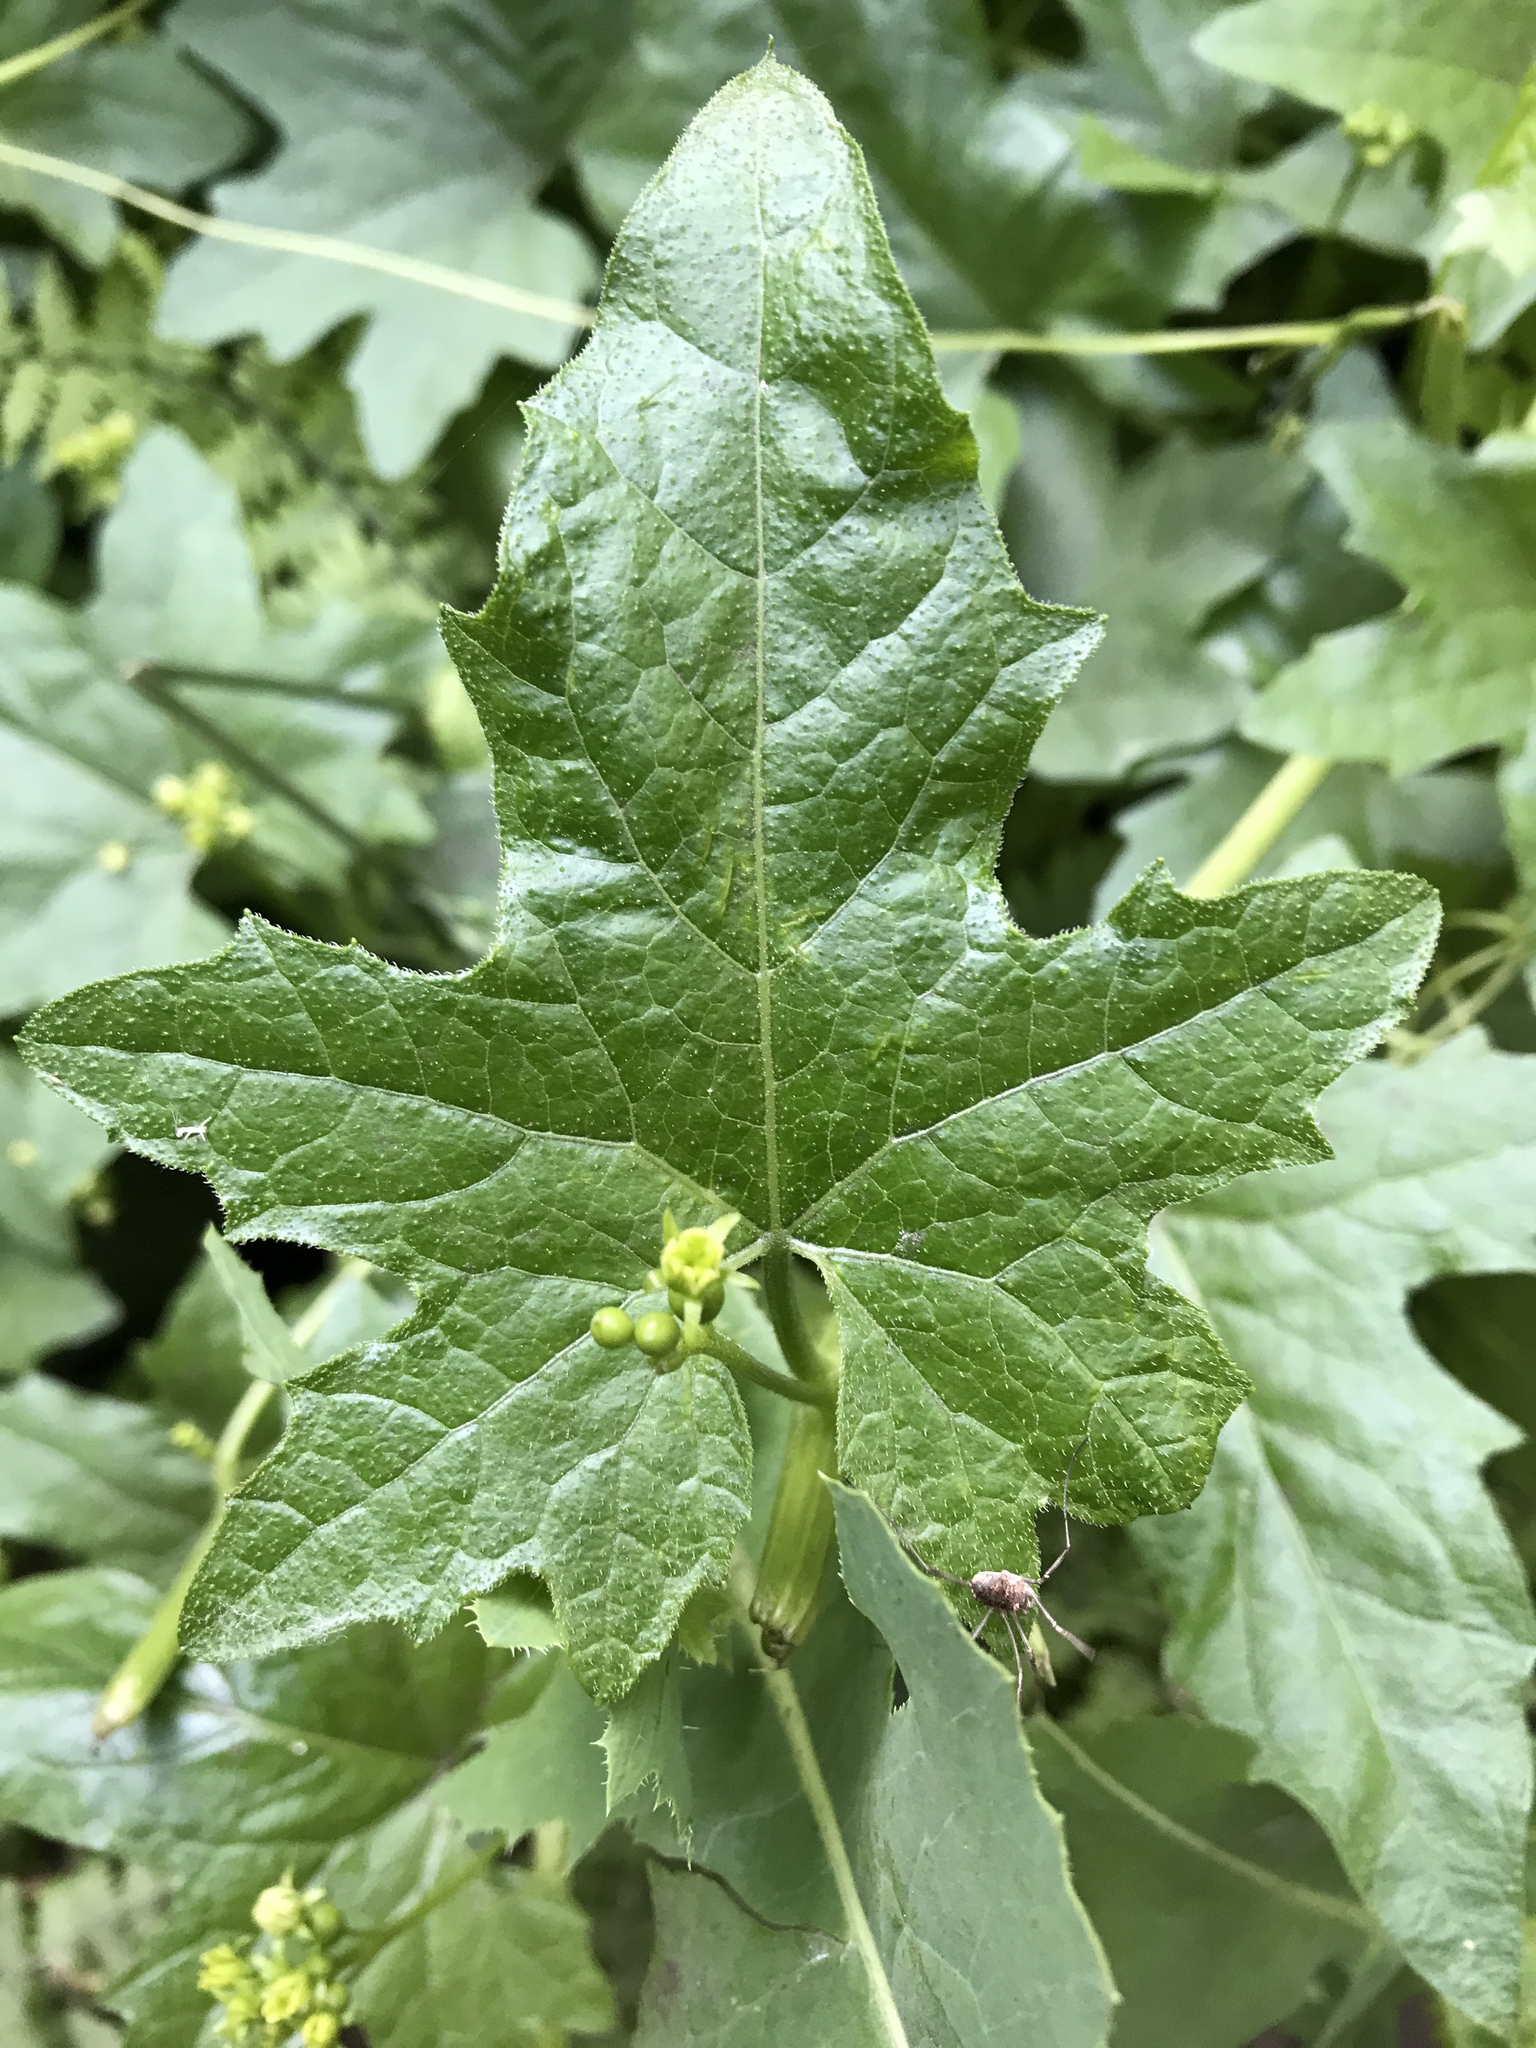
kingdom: Plantae
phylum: Tracheophyta
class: Magnoliopsida
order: Cucurbitales
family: Cucurbitaceae
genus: Bryonia
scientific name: Bryonia alba
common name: White bryony
